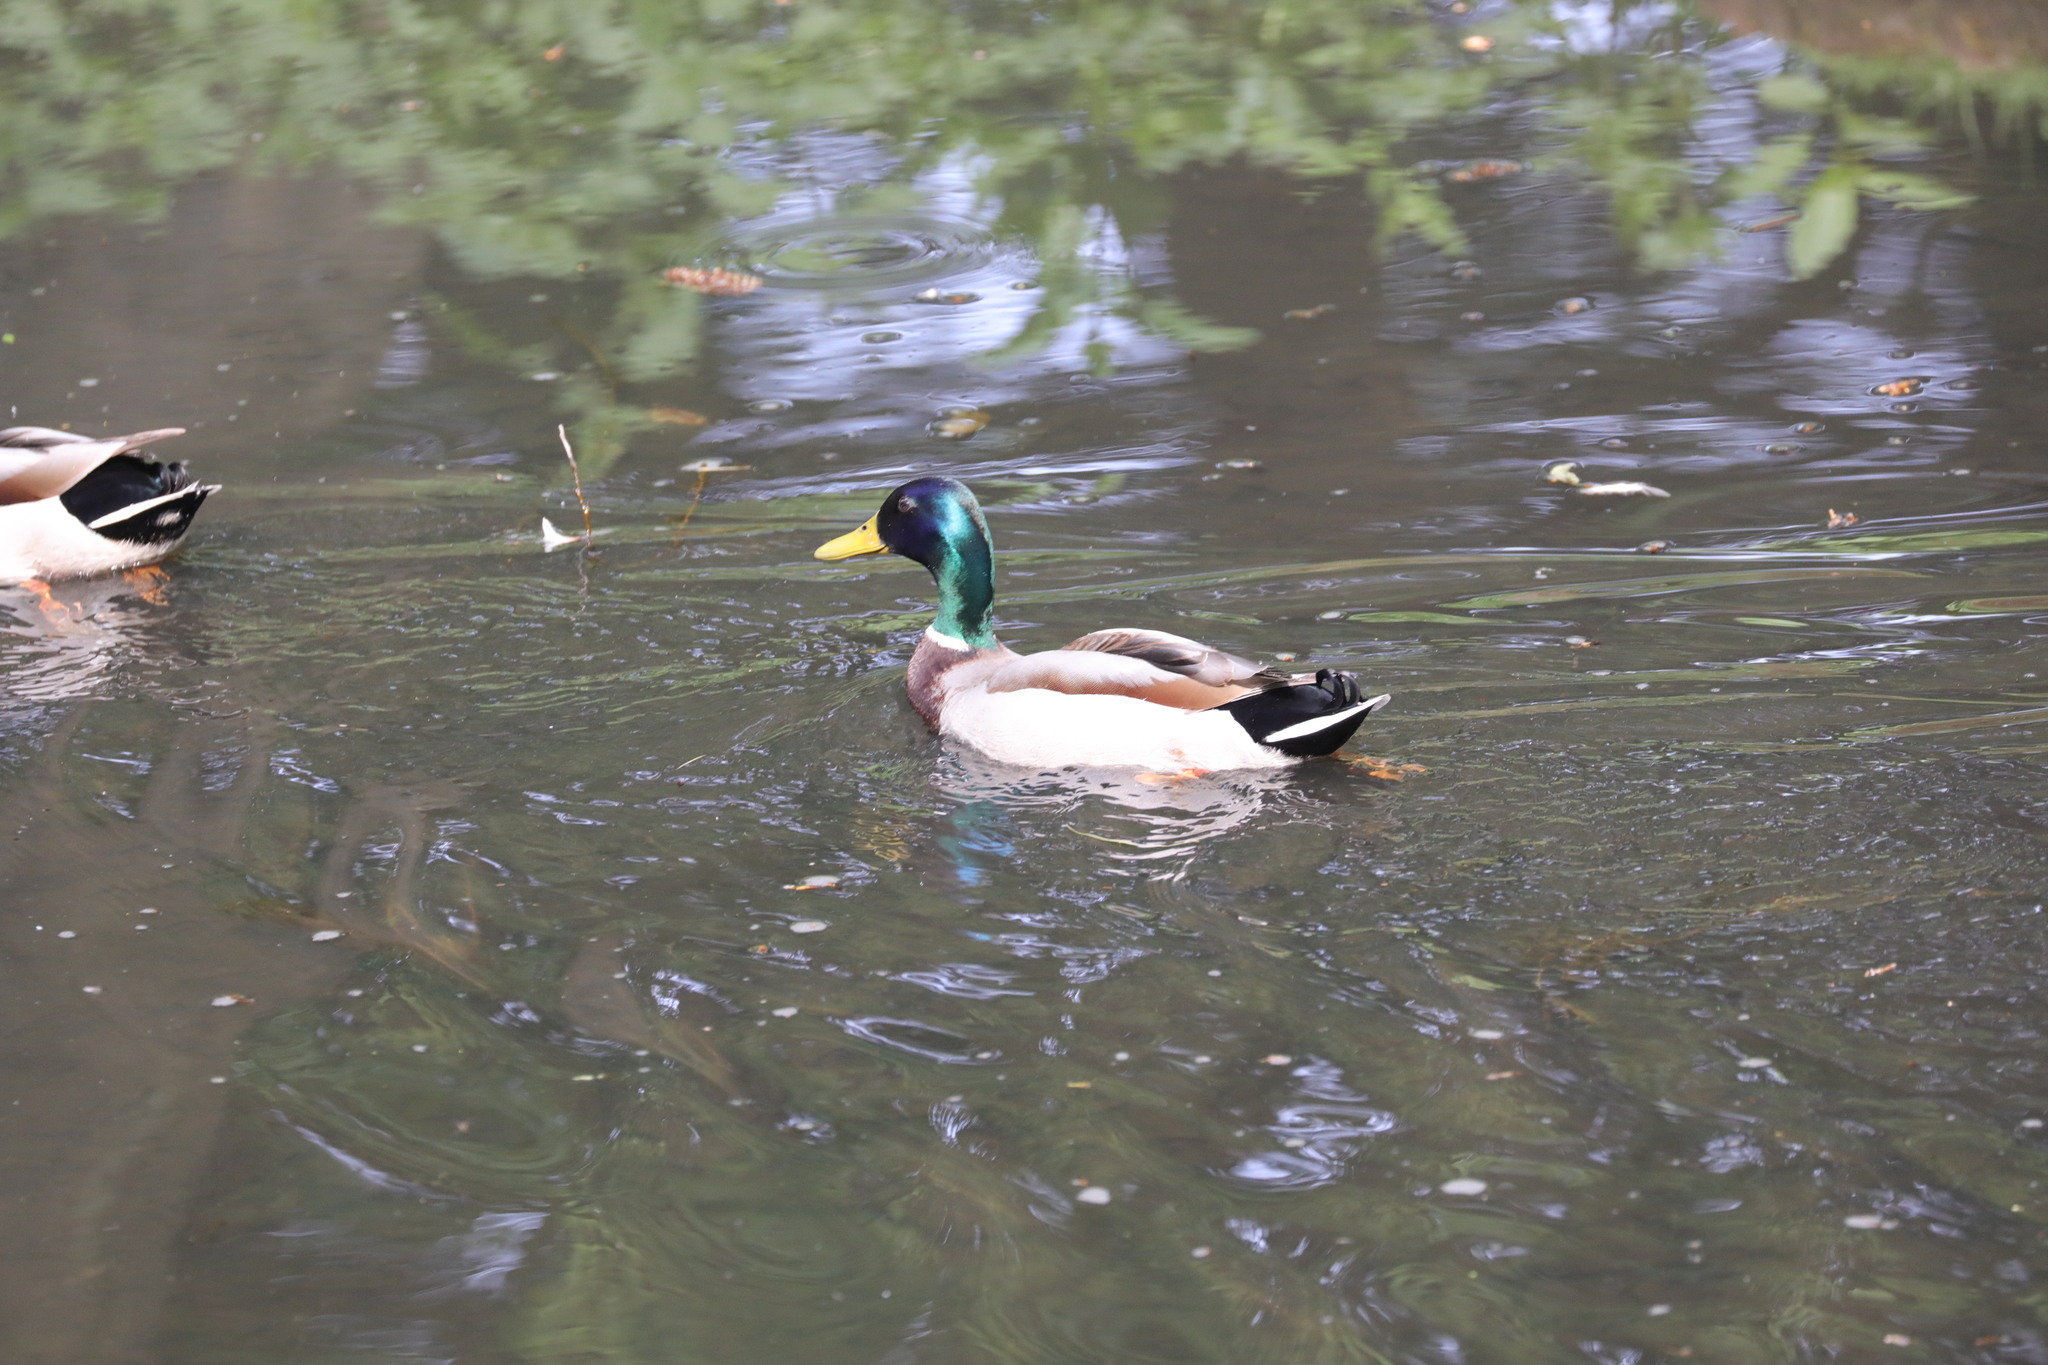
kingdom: Animalia
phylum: Chordata
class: Aves
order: Anseriformes
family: Anatidae
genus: Anas
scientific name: Anas platyrhynchos
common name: Mallard
